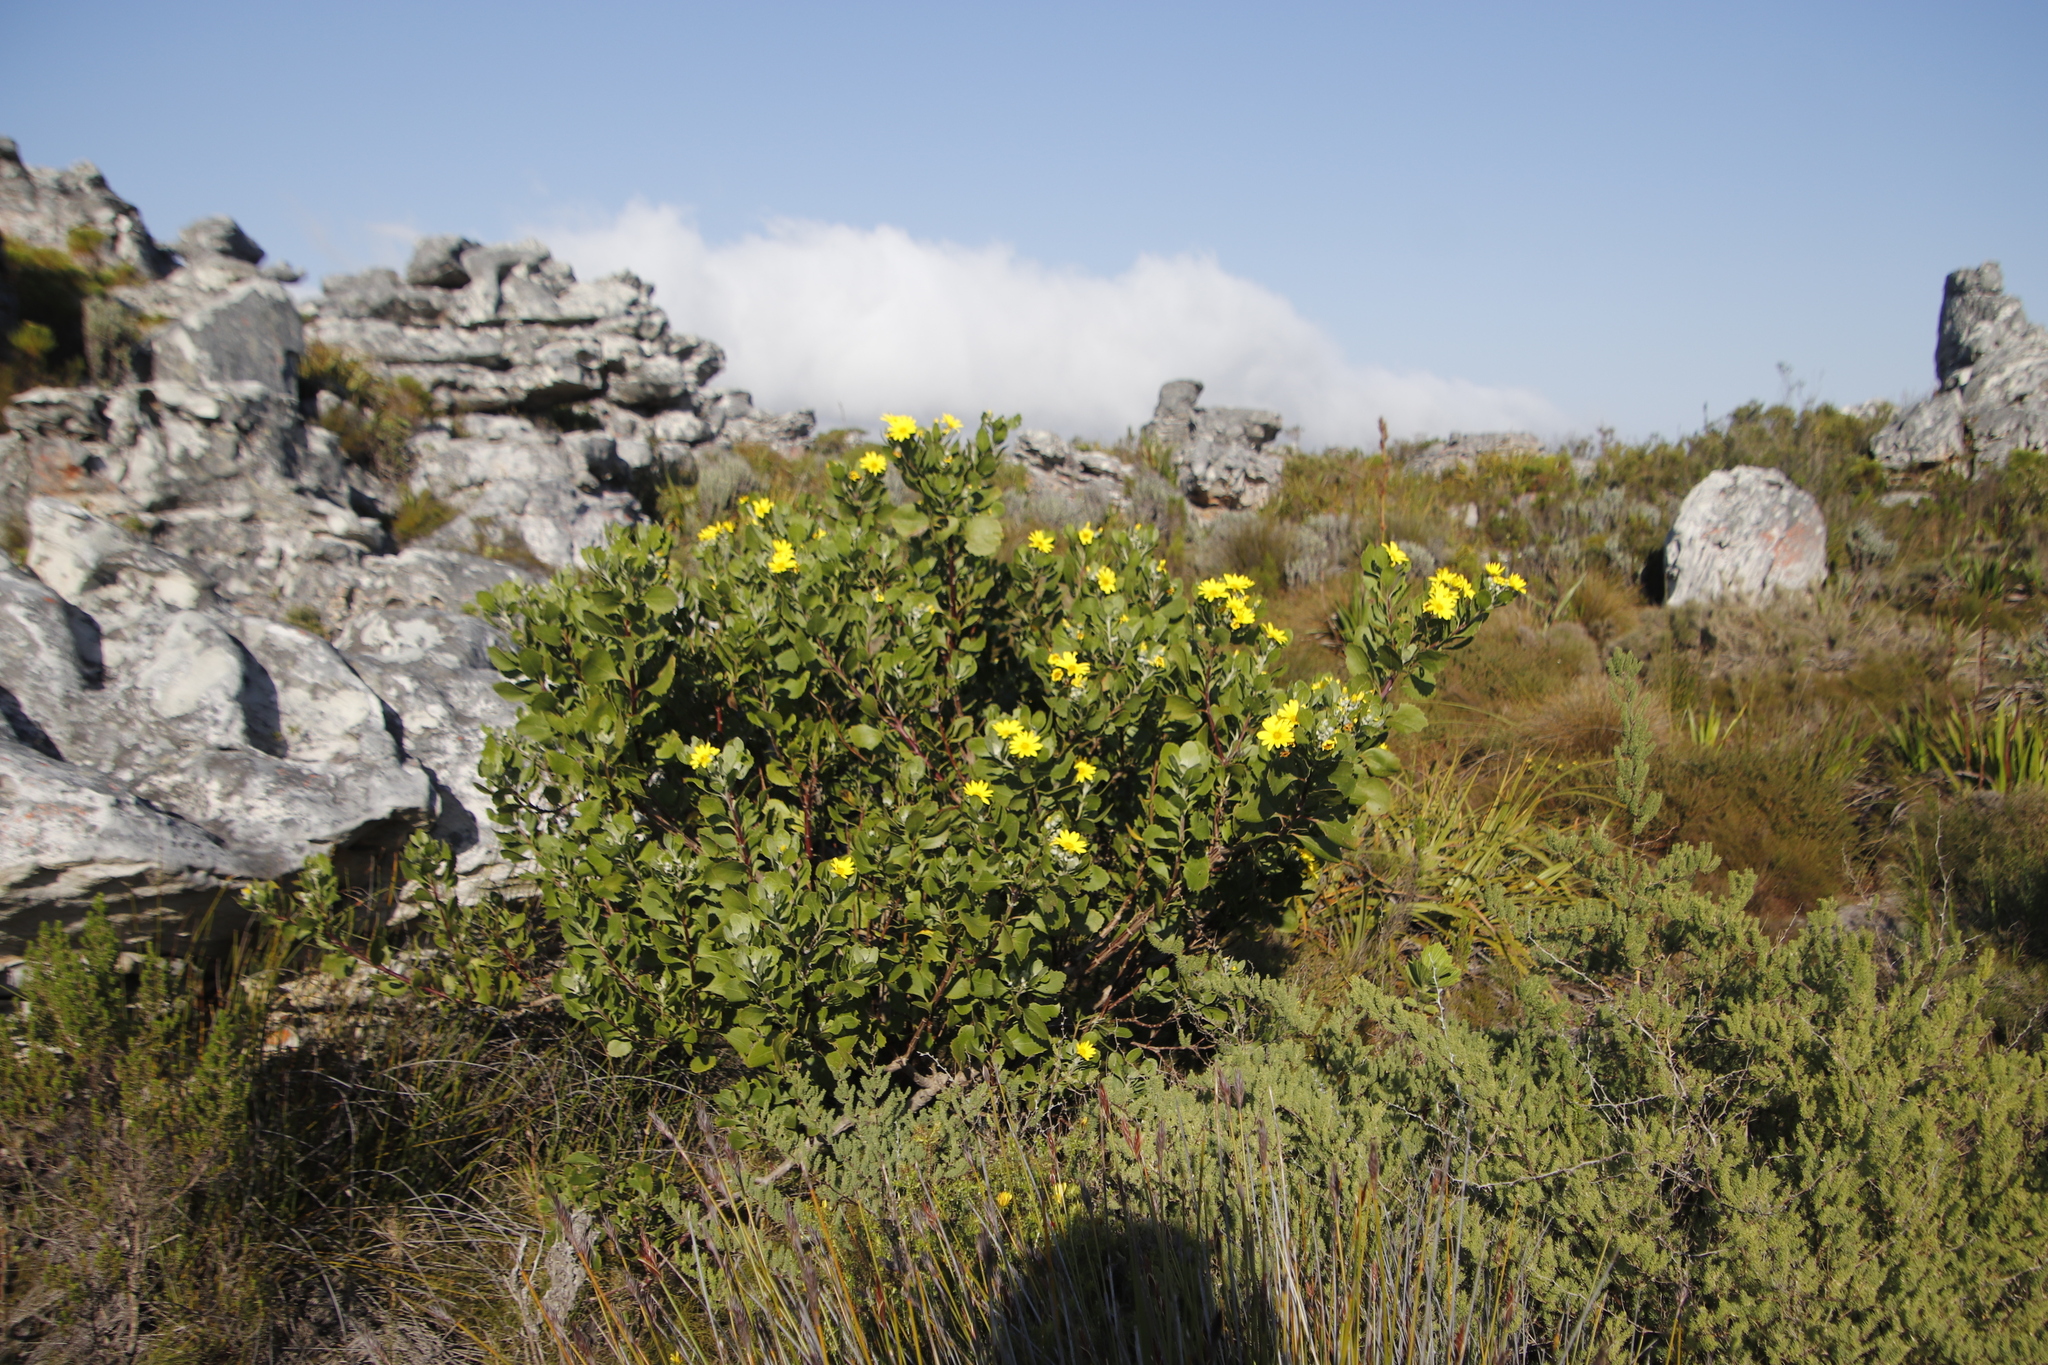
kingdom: Plantae
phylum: Tracheophyta
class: Magnoliopsida
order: Asterales
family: Asteraceae
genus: Osteospermum
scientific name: Osteospermum moniliferum
